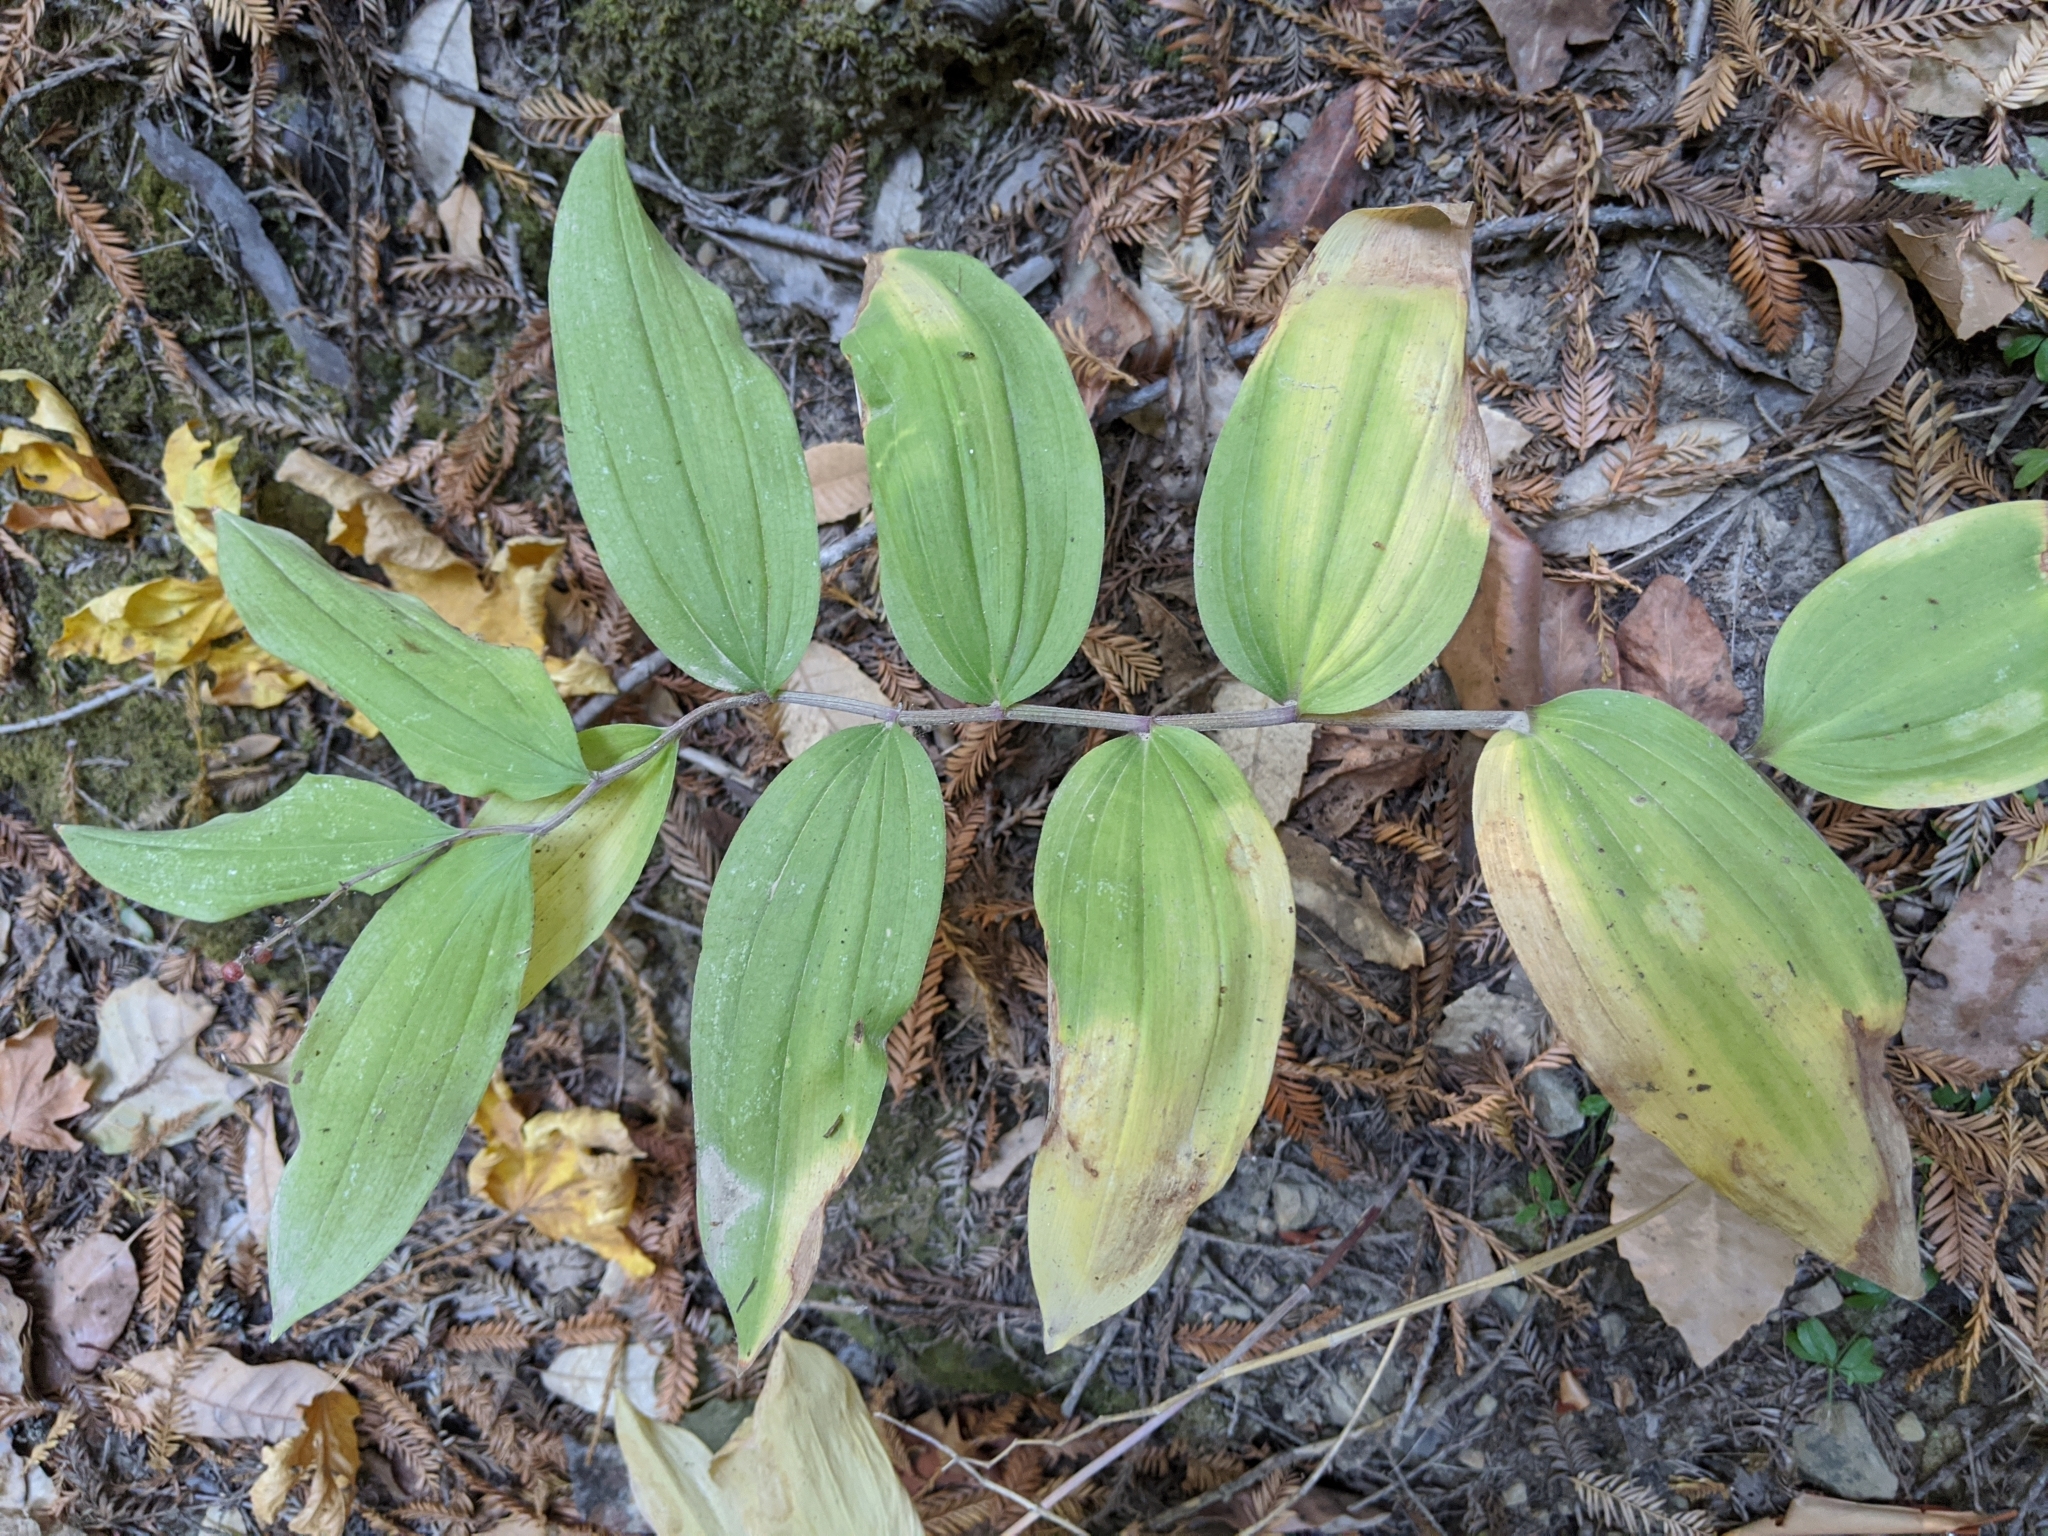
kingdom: Plantae
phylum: Tracheophyta
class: Liliopsida
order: Asparagales
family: Asparagaceae
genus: Maianthemum
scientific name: Maianthemum racemosum
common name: False spikenard
